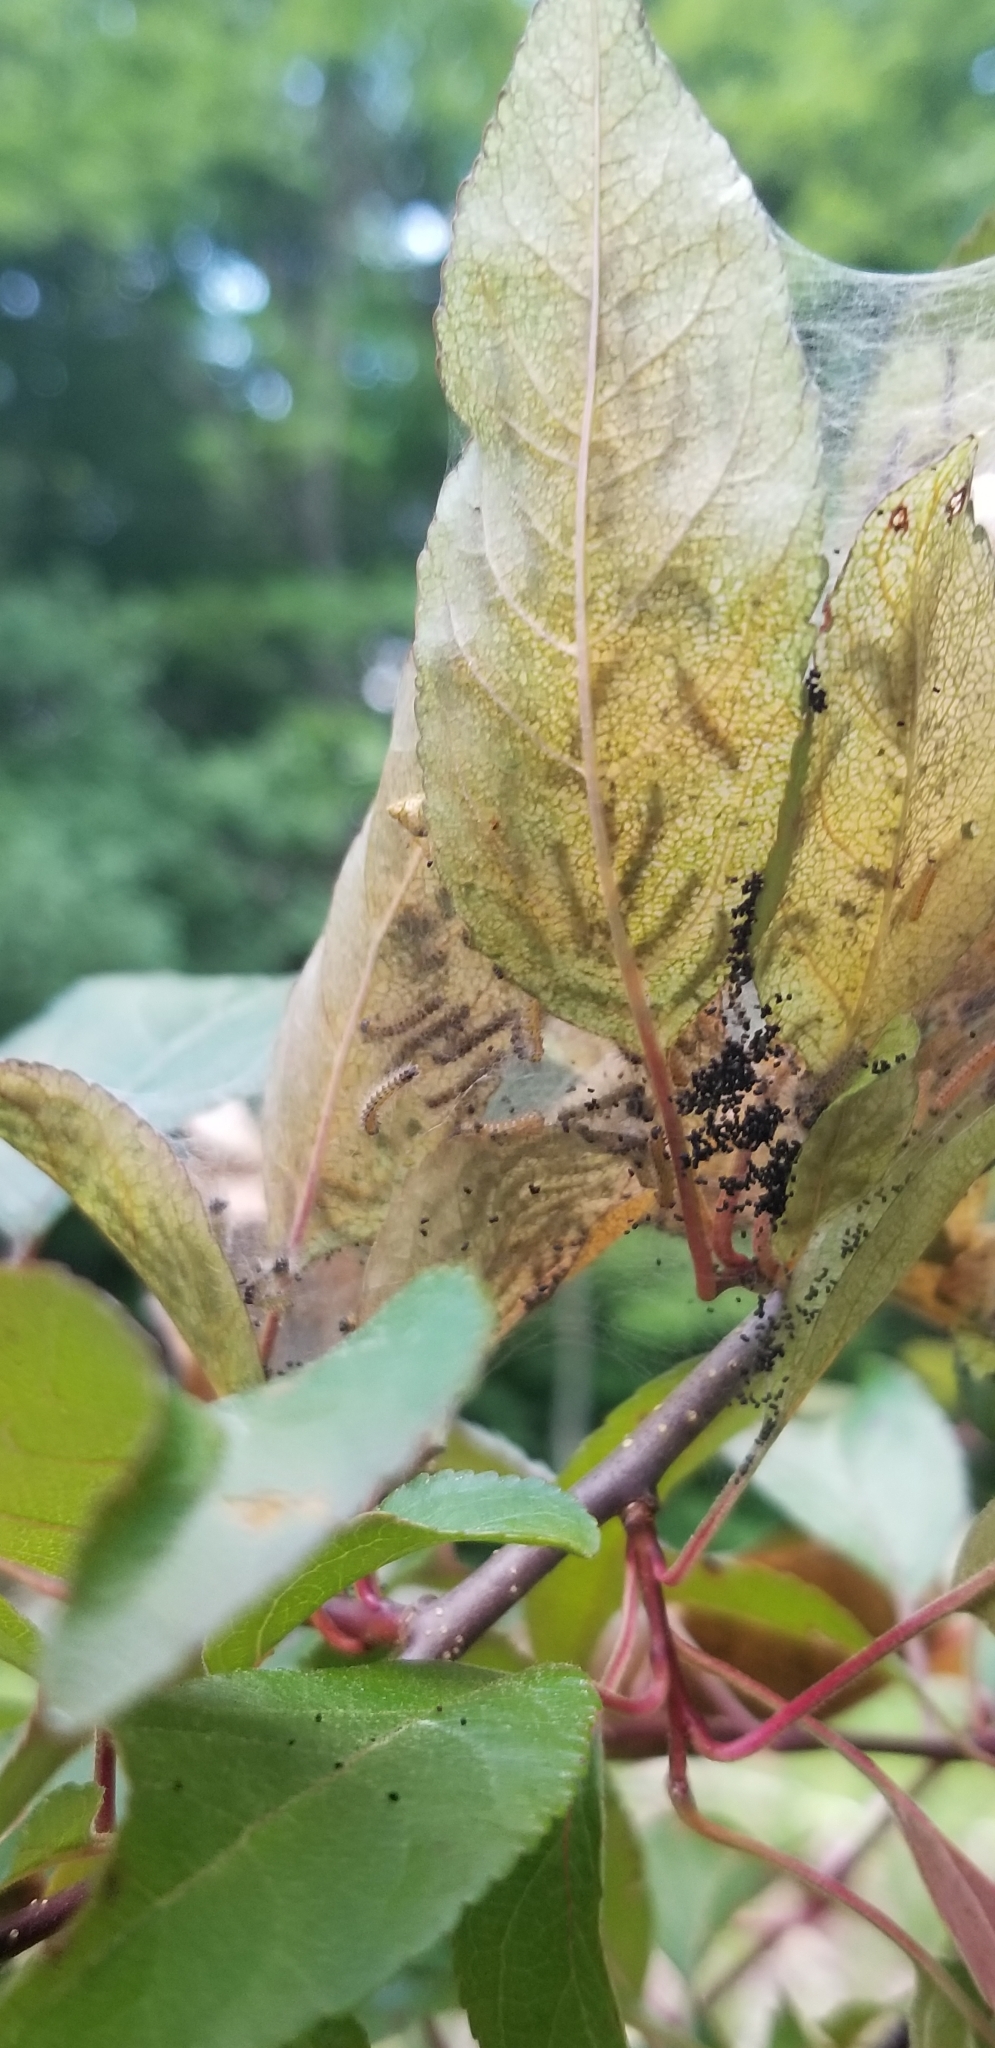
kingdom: Animalia
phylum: Arthropoda
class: Insecta
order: Lepidoptera
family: Erebidae
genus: Hyphantria
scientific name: Hyphantria cunea
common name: American white moth
